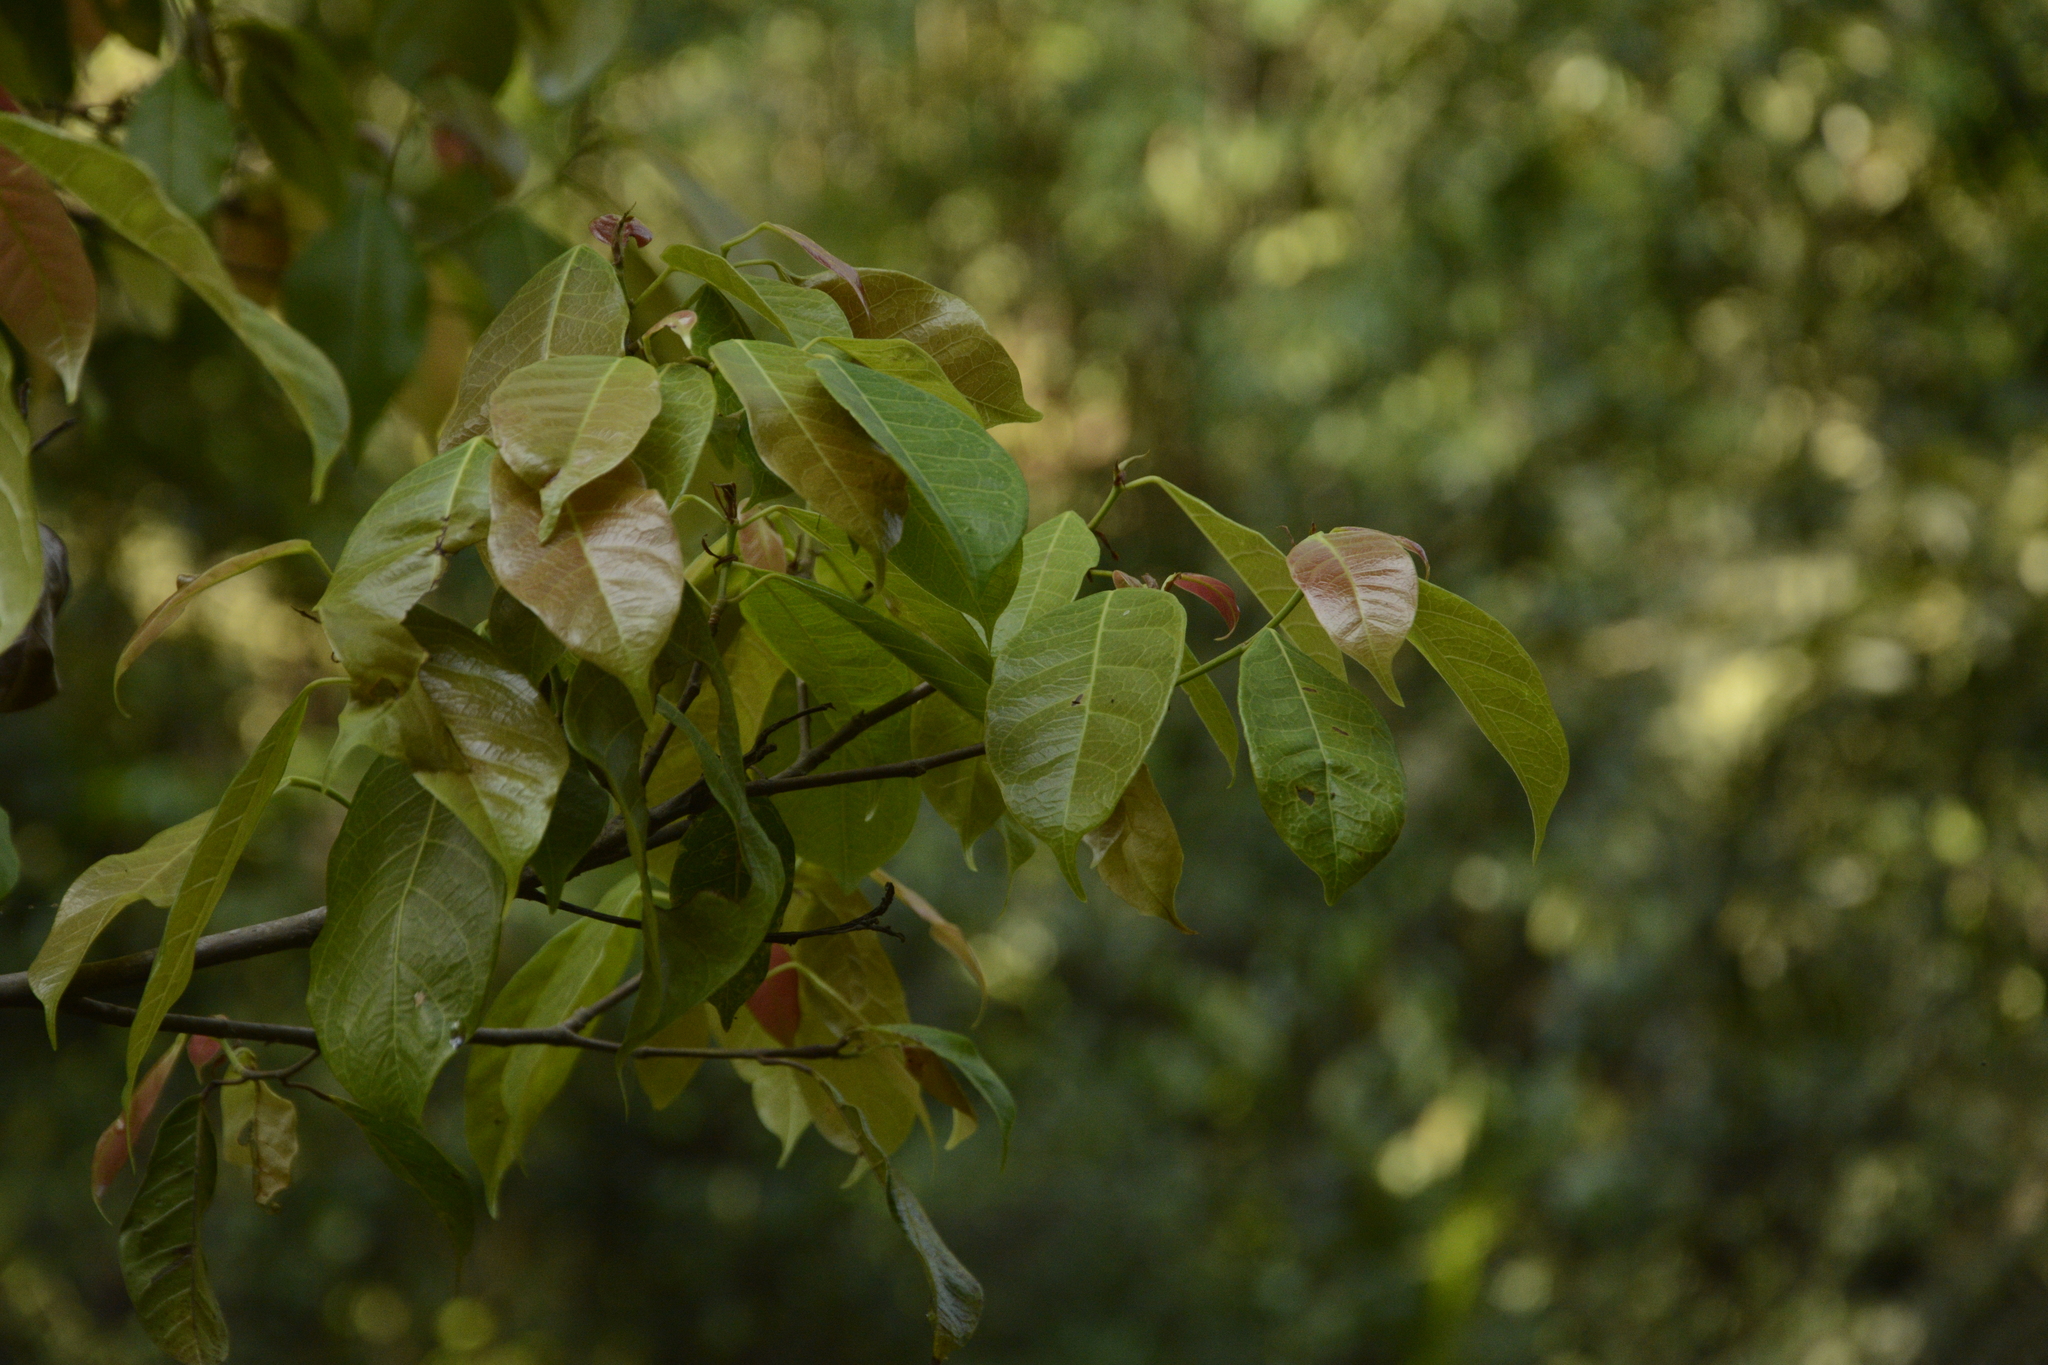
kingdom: Plantae
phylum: Tracheophyta
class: Magnoliopsida
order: Rosales
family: Moraceae
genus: Ficus
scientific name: Ficus nervosa
